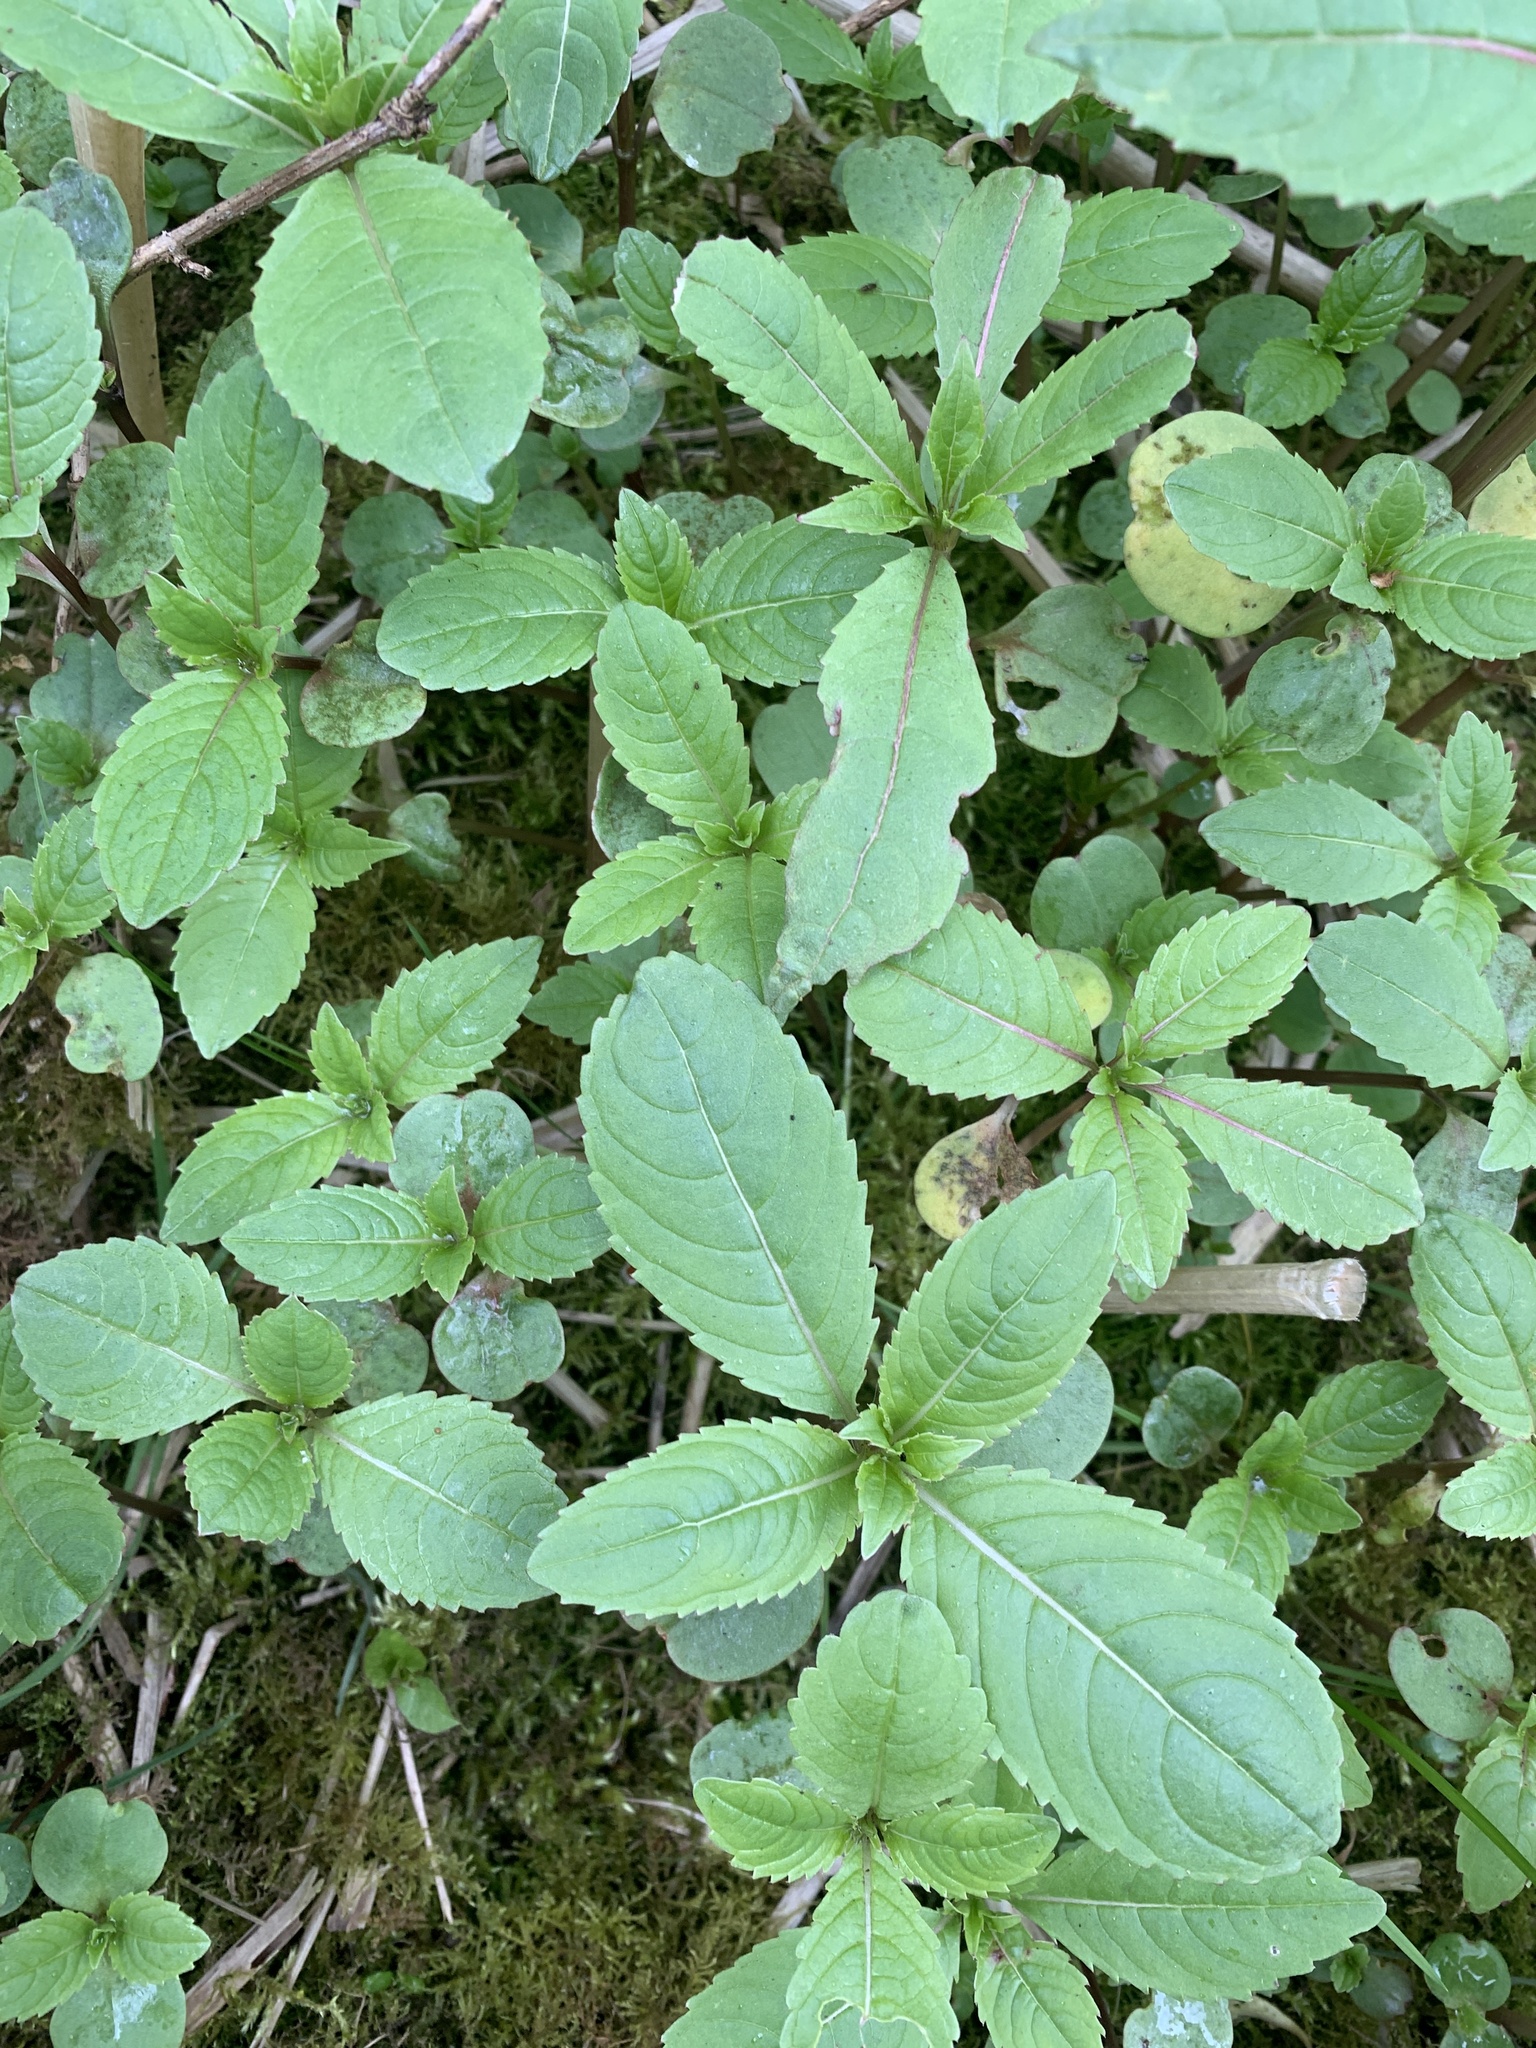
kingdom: Plantae
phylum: Tracheophyta
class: Magnoliopsida
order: Ericales
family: Balsaminaceae
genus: Impatiens
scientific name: Impatiens glandulifera
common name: Himalayan balsam
